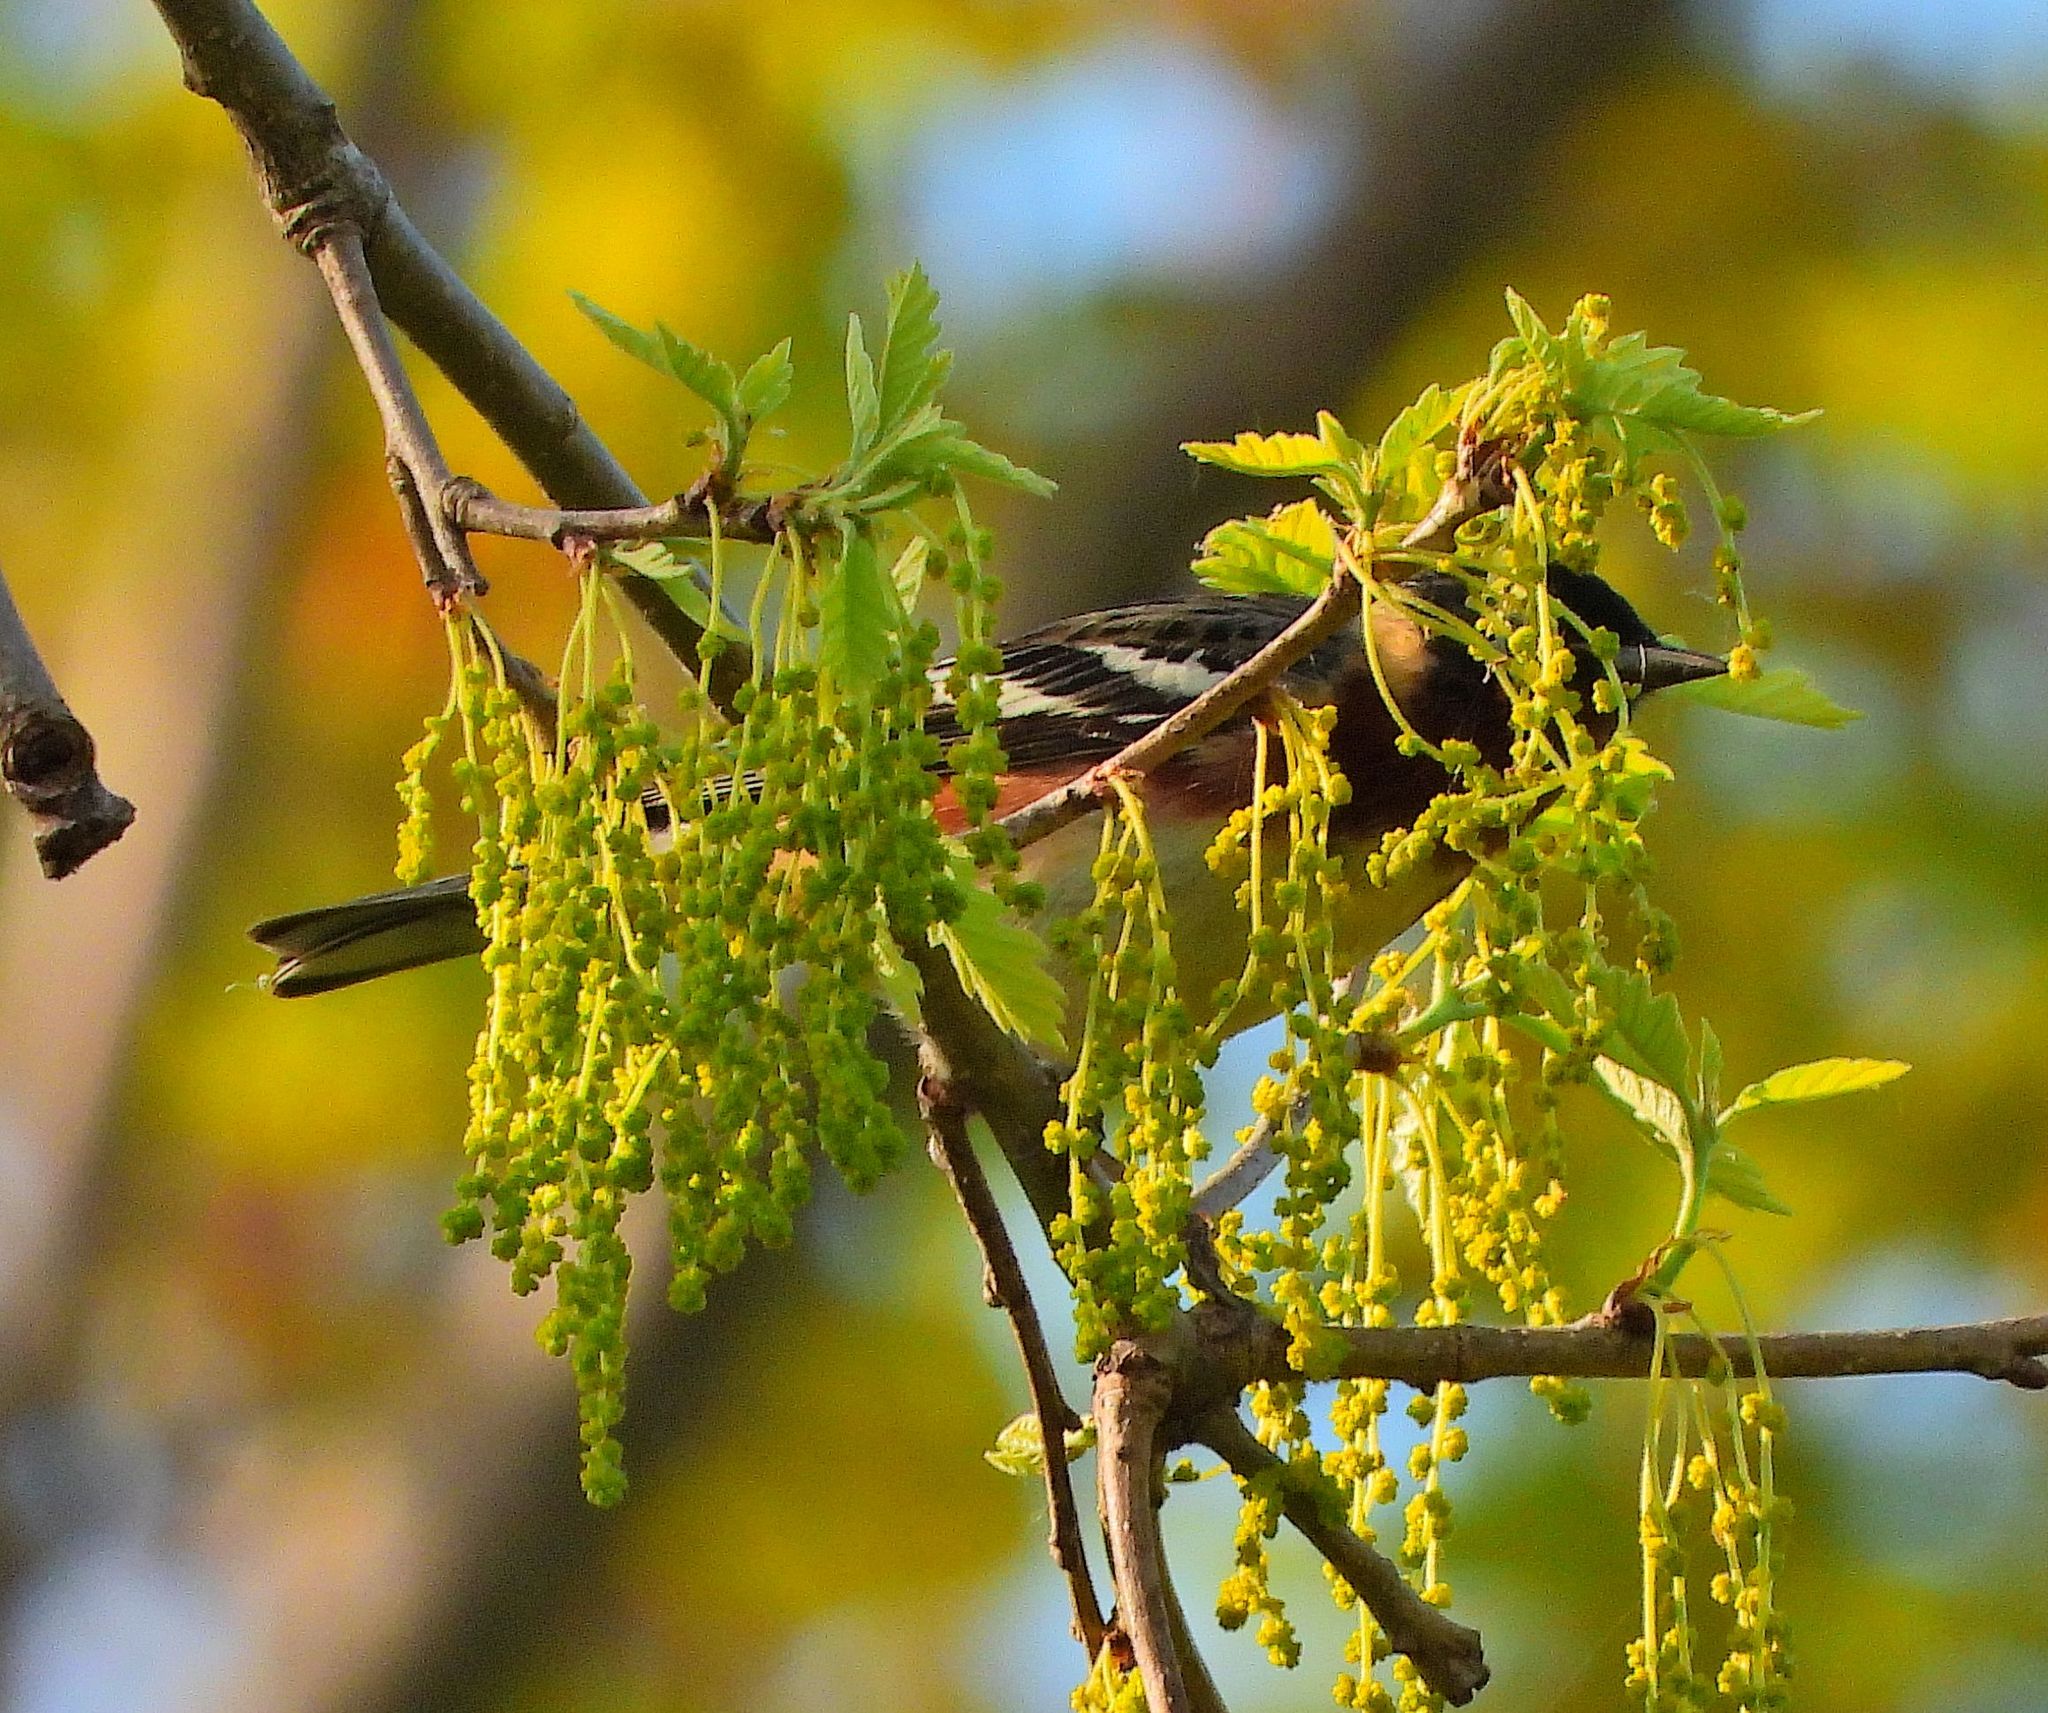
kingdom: Animalia
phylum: Chordata
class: Aves
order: Passeriformes
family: Parulidae
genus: Setophaga
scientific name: Setophaga castanea
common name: Bay-breasted warbler
